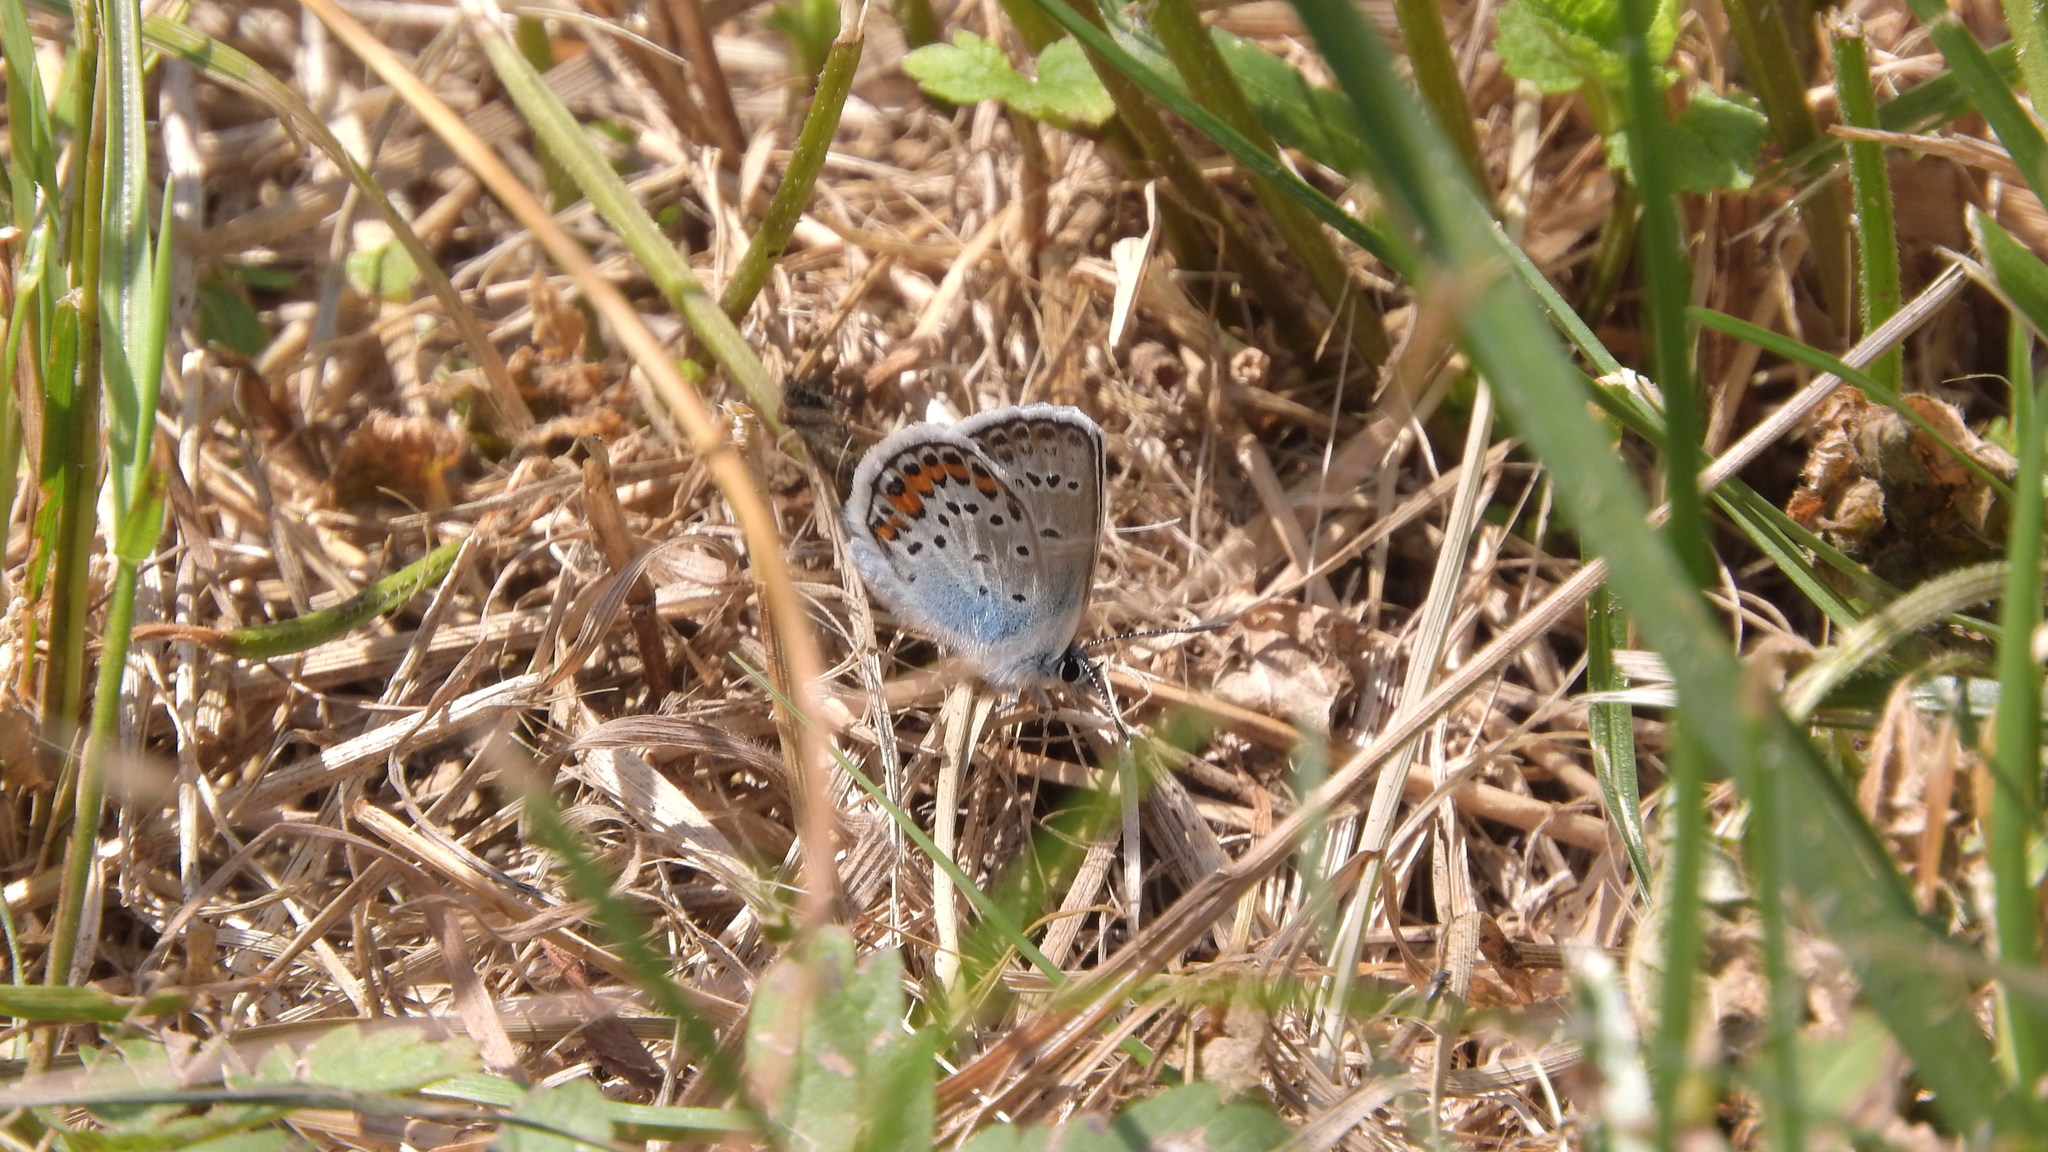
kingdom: Animalia
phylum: Arthropoda
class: Insecta
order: Lepidoptera
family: Lycaenidae
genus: Plebejus
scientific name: Plebejus argus
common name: Silver-studded blue
